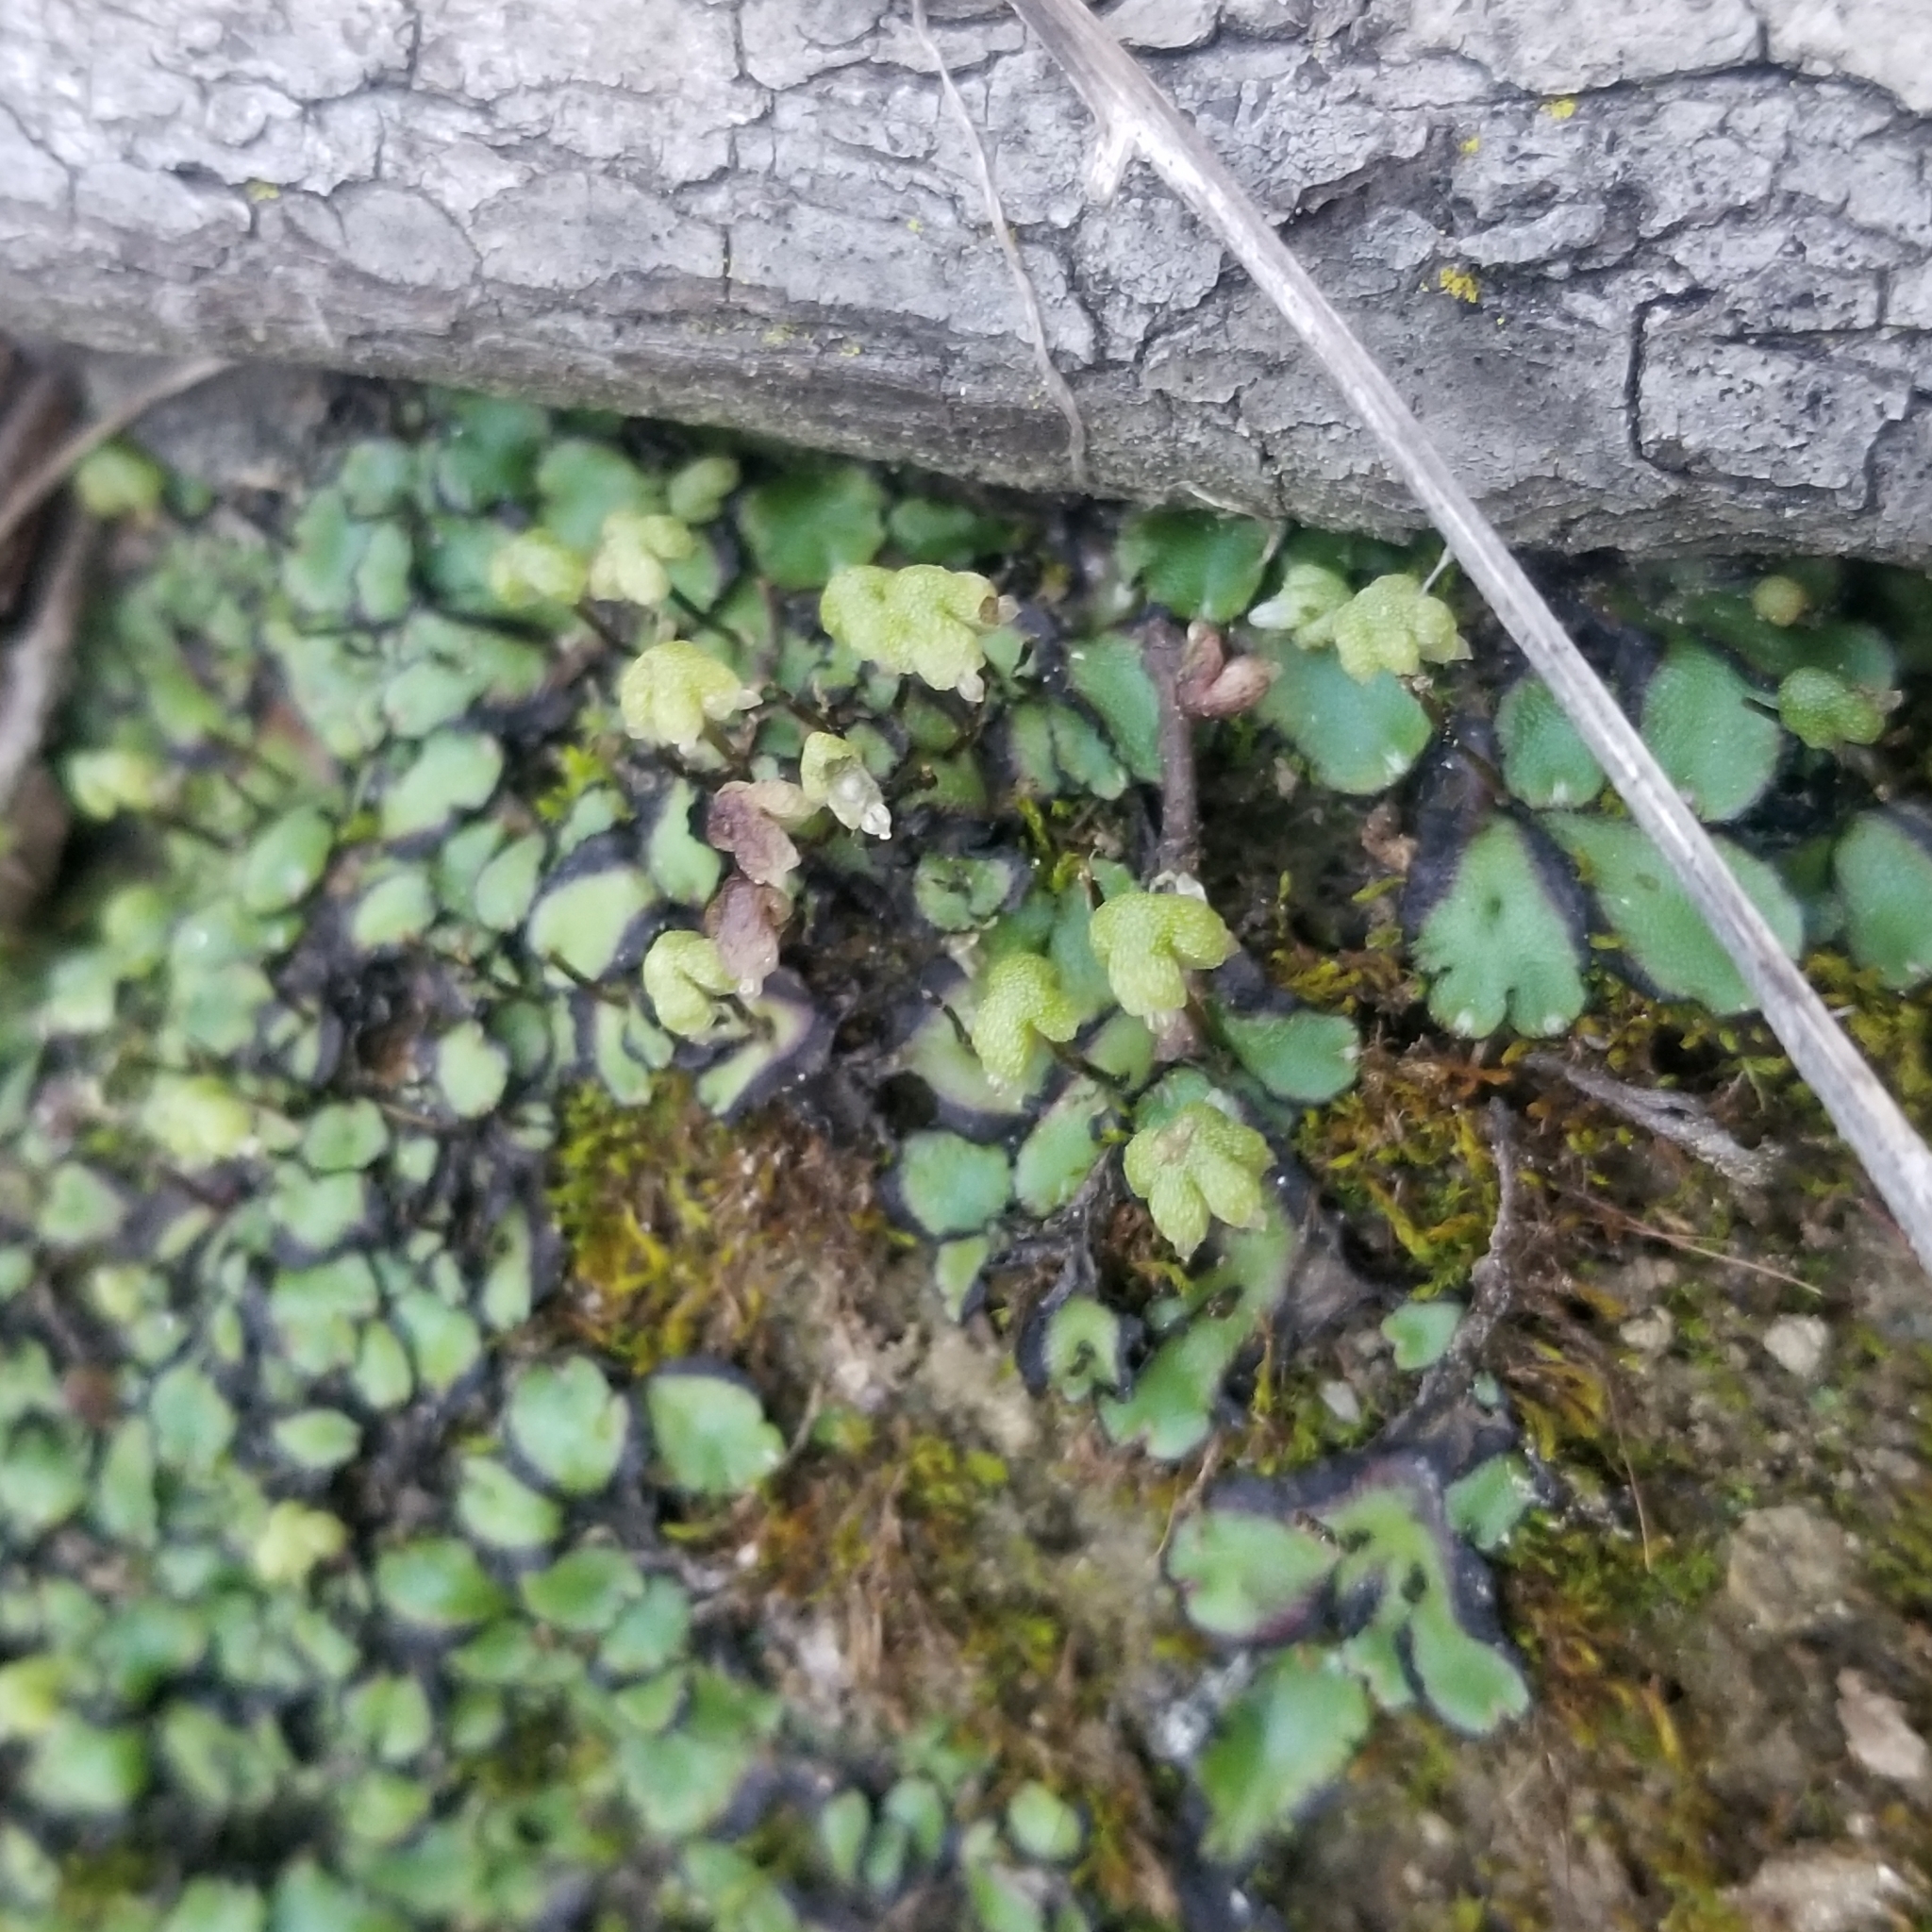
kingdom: Plantae
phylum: Marchantiophyta
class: Marchantiopsida
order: Marchantiales
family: Aytoniaceae
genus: Asterella
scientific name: Asterella californica
